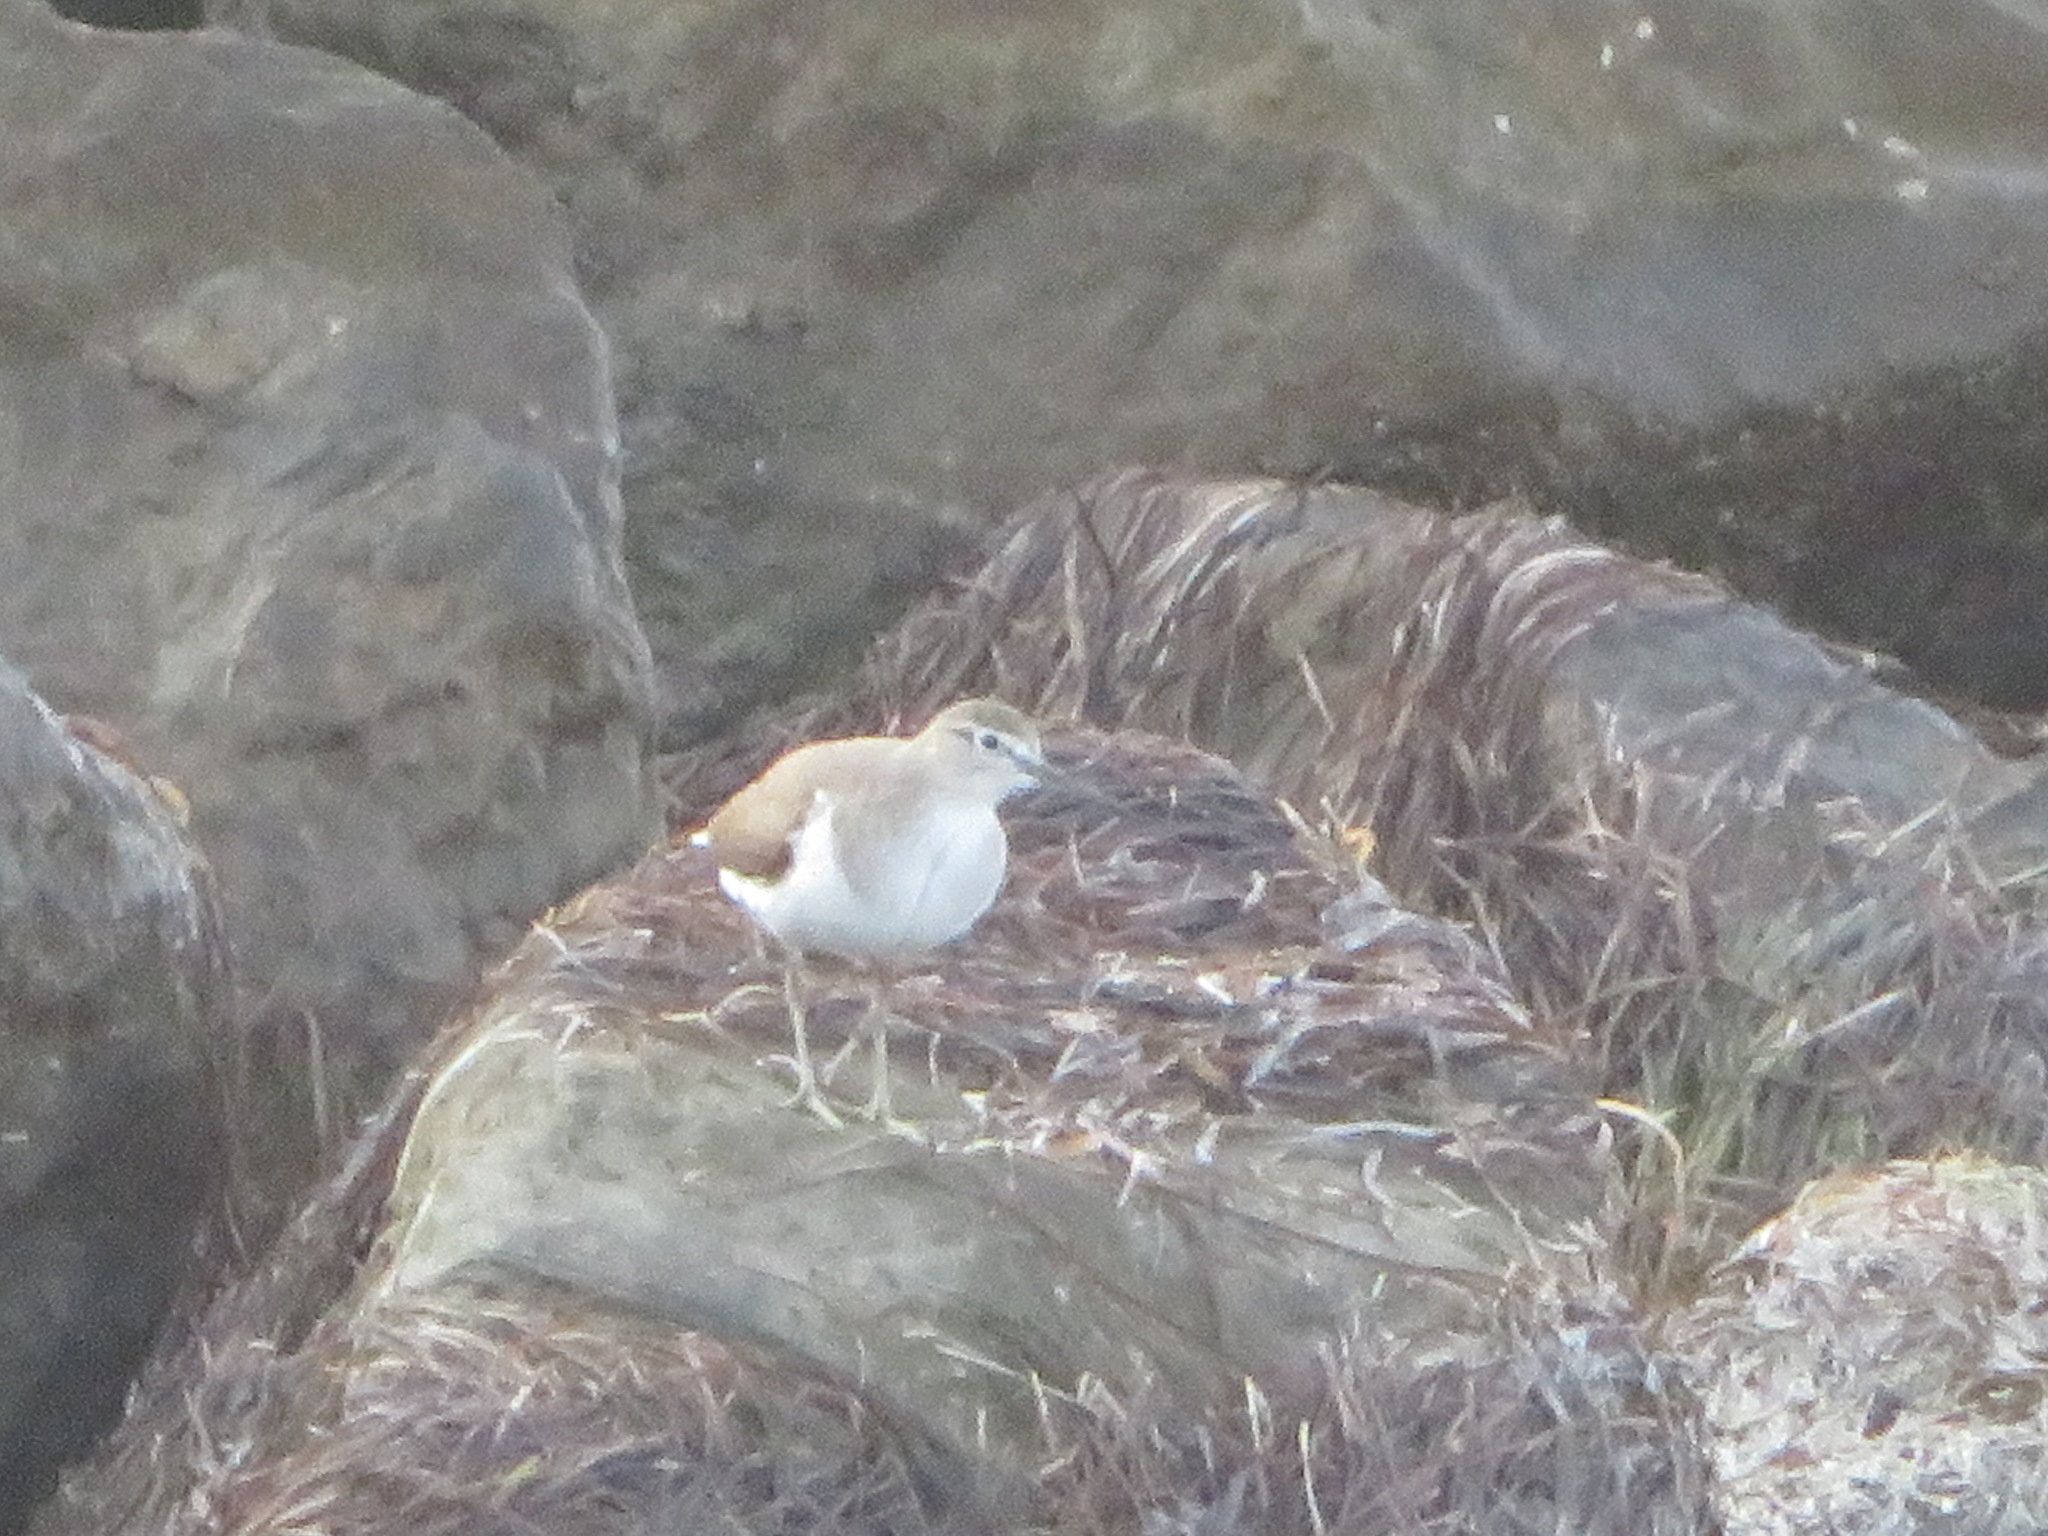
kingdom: Animalia
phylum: Chordata
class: Aves
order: Charadriiformes
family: Scolopacidae
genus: Actitis
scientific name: Actitis hypoleucos
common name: Common sandpiper
